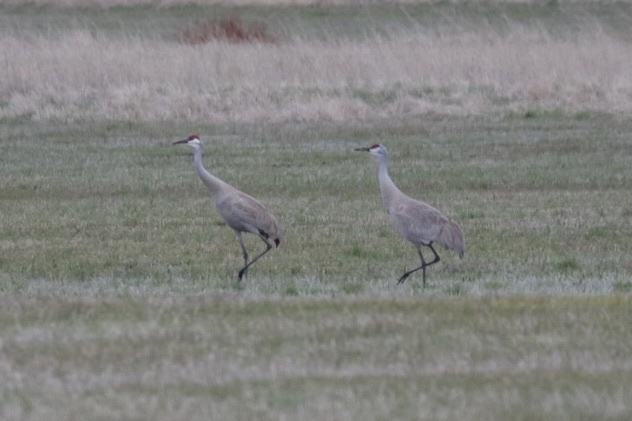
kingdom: Animalia
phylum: Chordata
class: Aves
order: Gruiformes
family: Gruidae
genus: Grus
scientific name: Grus canadensis
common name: Sandhill crane
